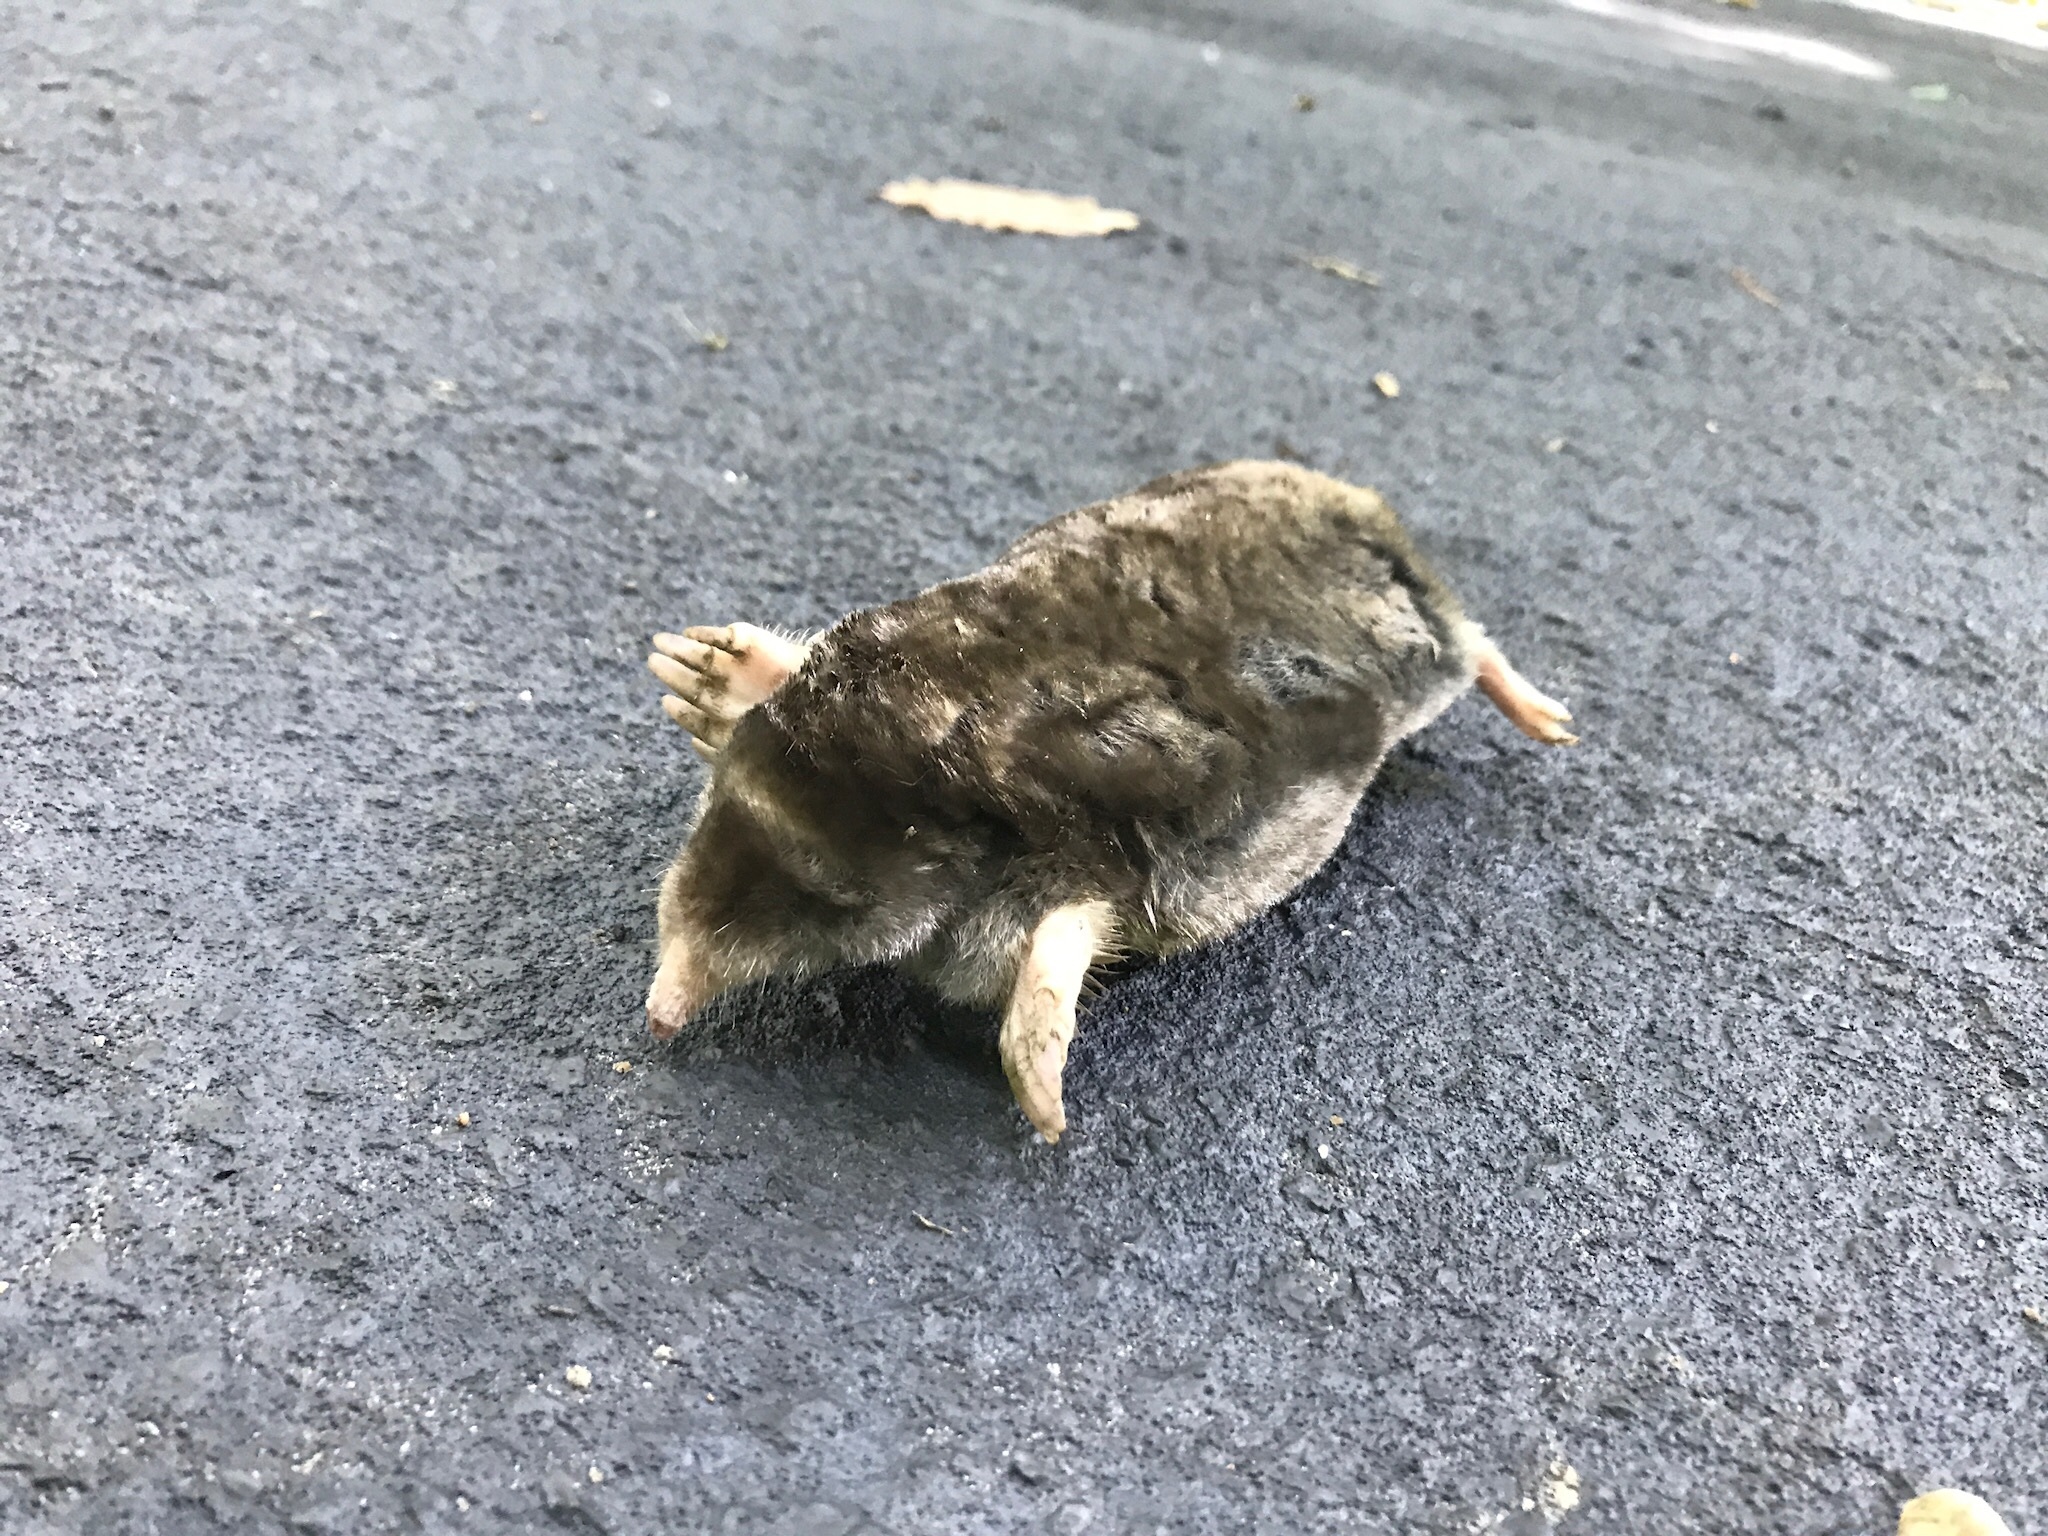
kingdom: Animalia
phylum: Chordata
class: Mammalia
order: Soricomorpha
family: Talpidae
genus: Scalopus
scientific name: Scalopus aquaticus
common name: Eastern mole
